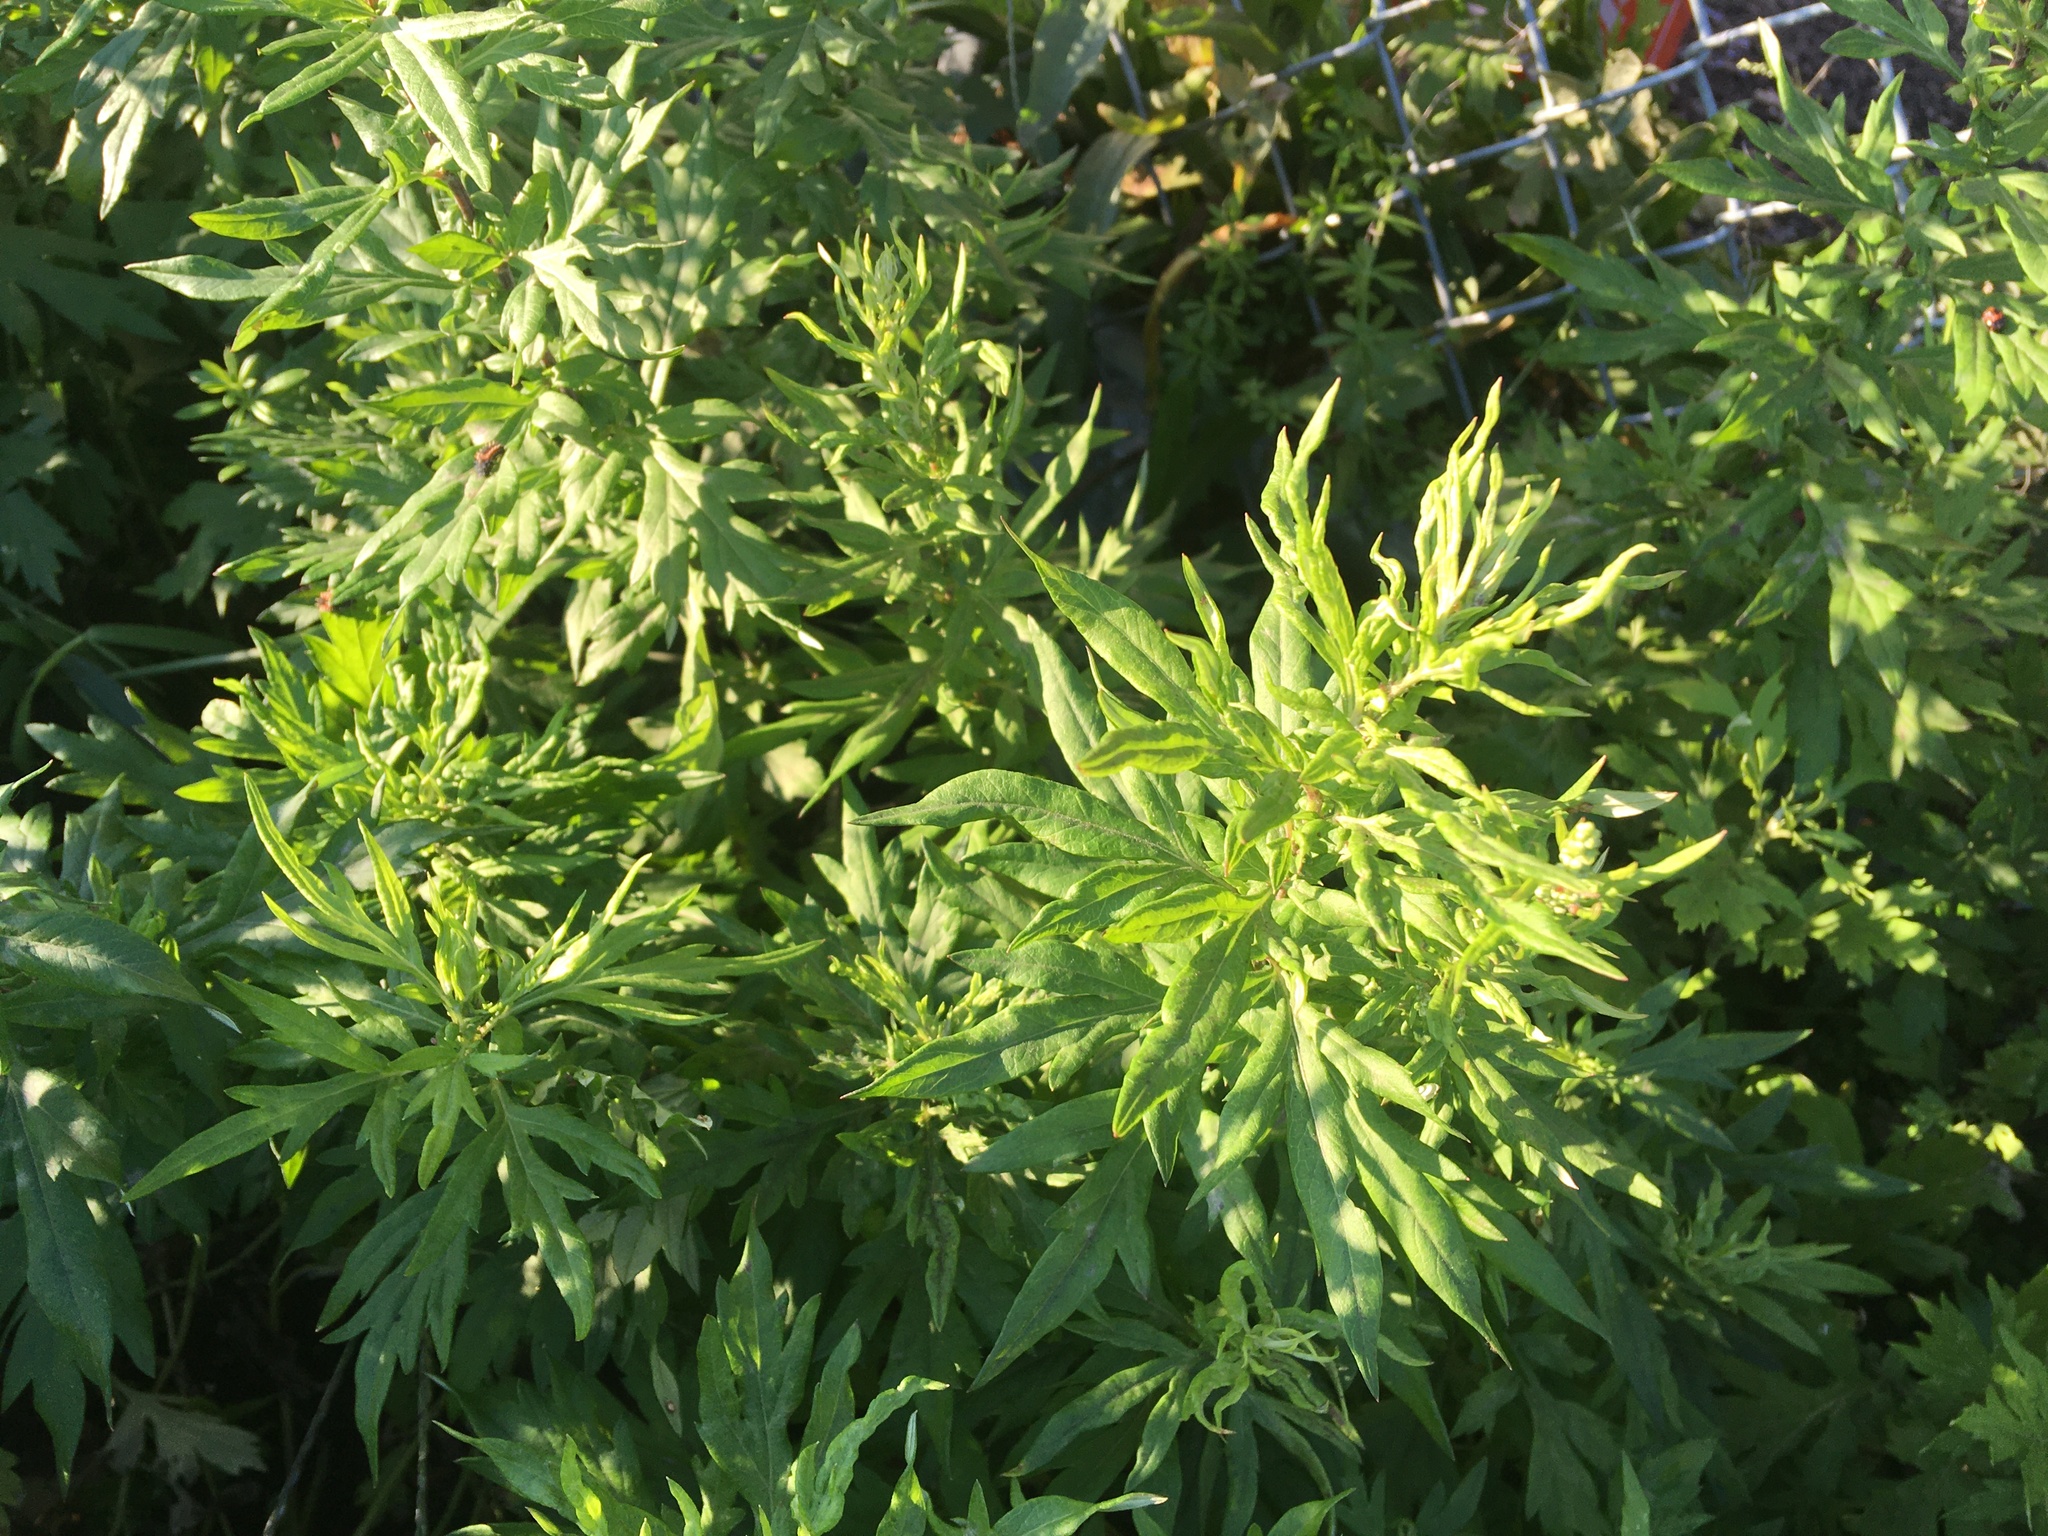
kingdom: Plantae
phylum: Tracheophyta
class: Magnoliopsida
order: Asterales
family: Asteraceae
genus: Artemisia
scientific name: Artemisia vulgaris
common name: Mugwort
